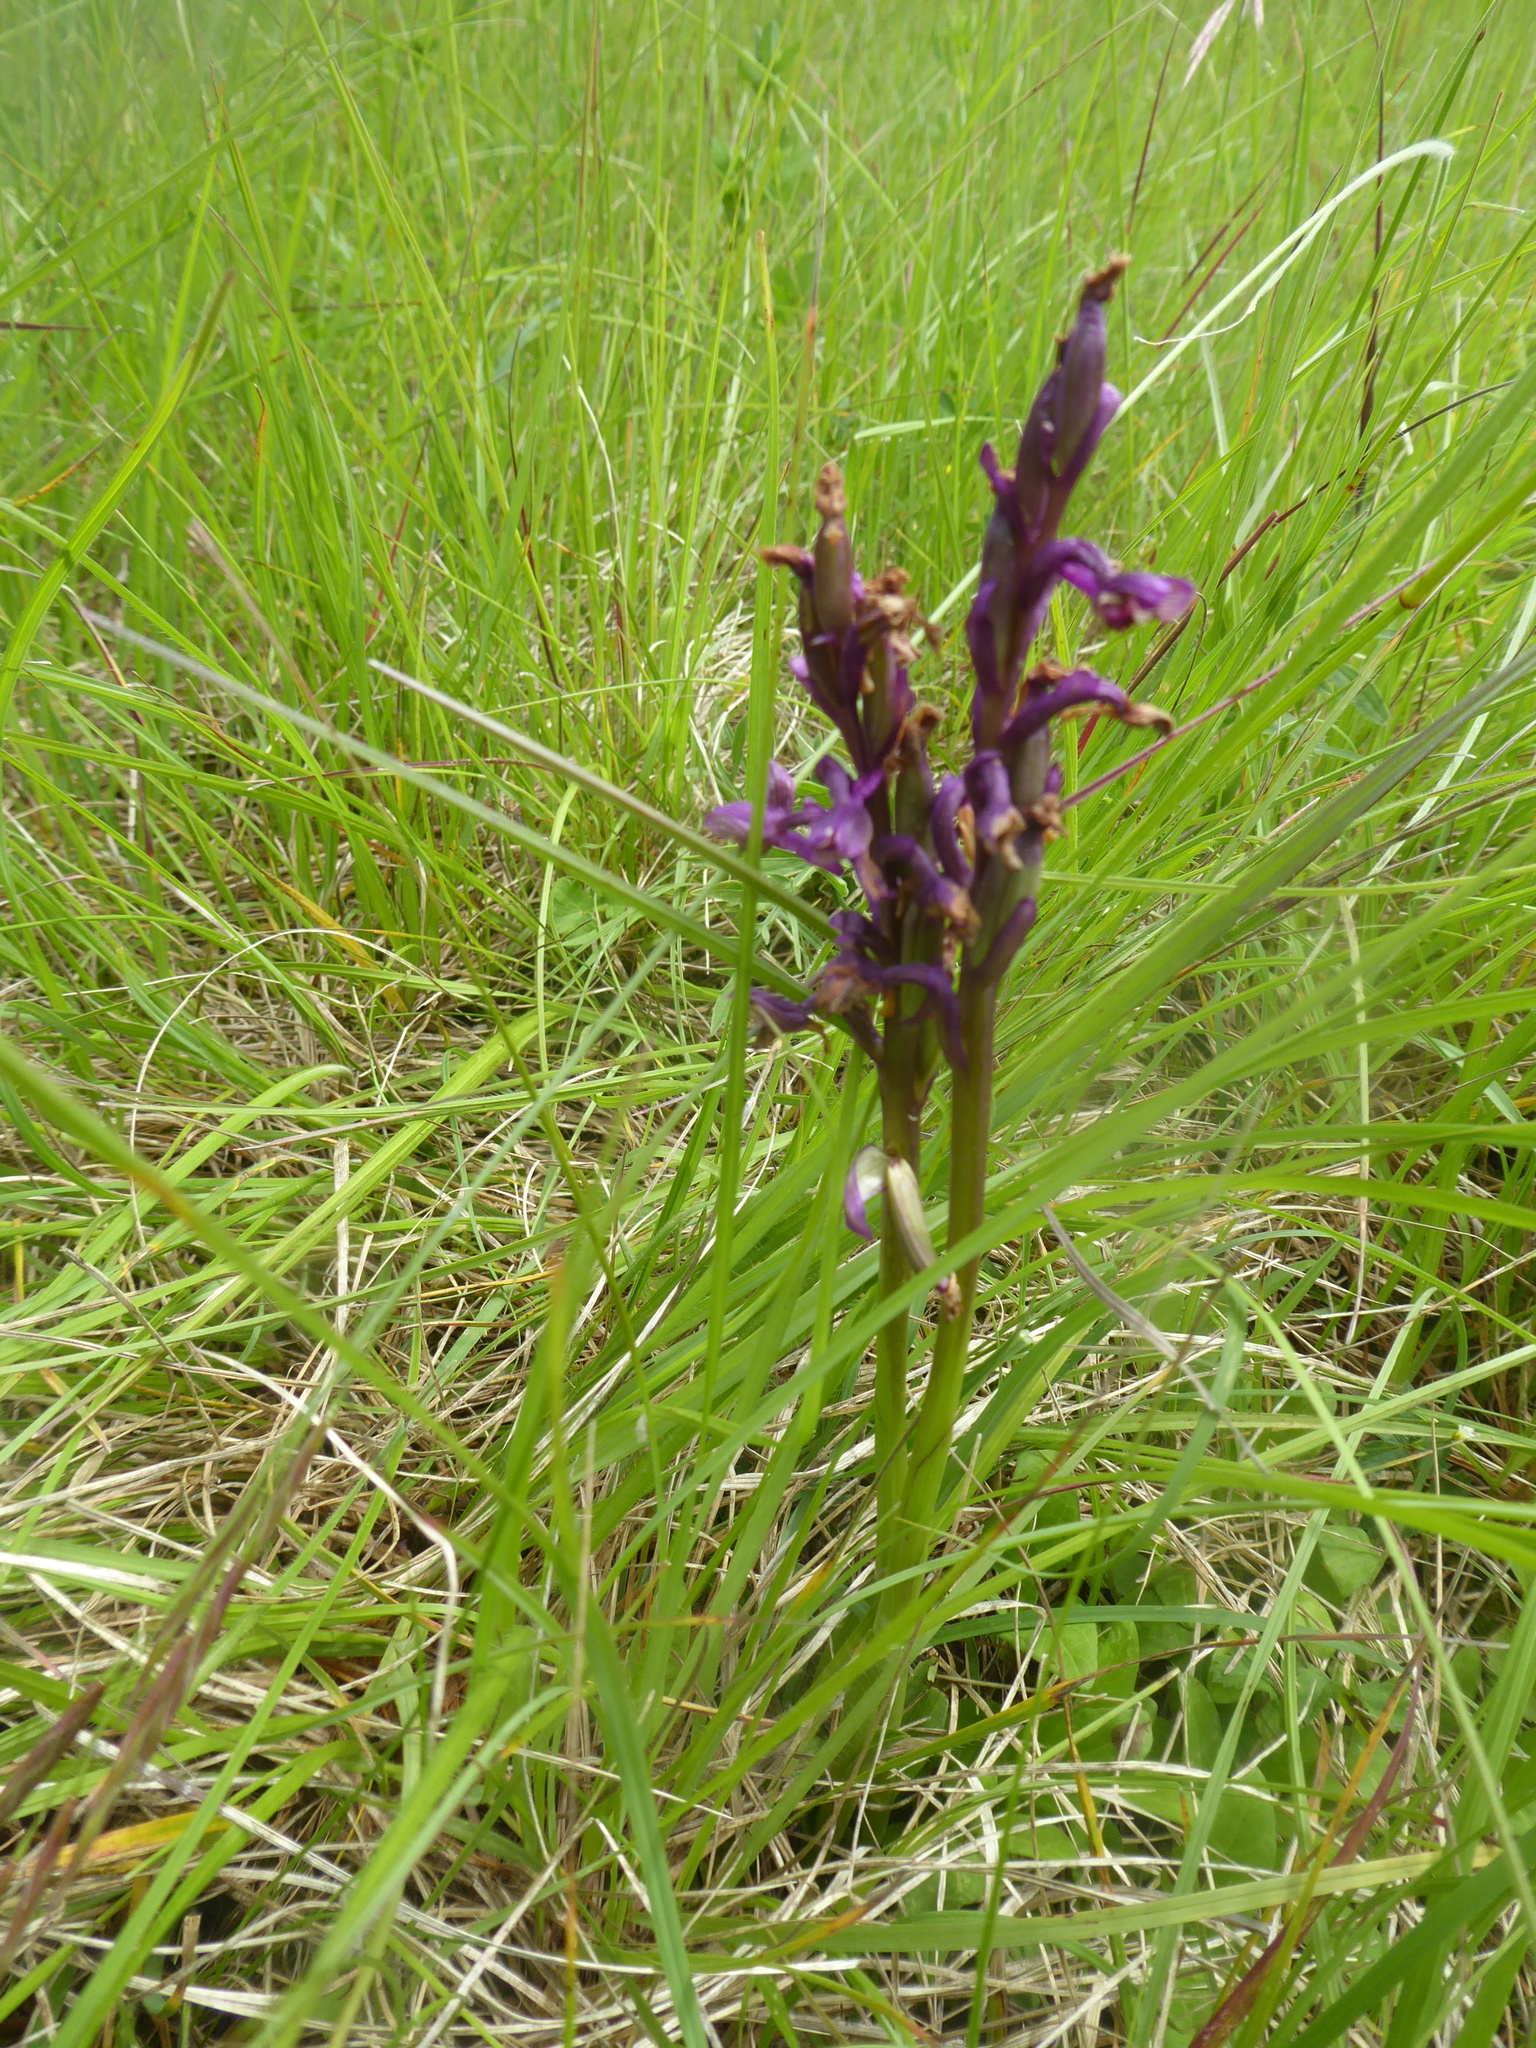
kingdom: Plantae
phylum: Tracheophyta
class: Liliopsida
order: Asparagales
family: Orchidaceae
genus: Anacamptis
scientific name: Anacamptis morio
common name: Green-winged orchid
